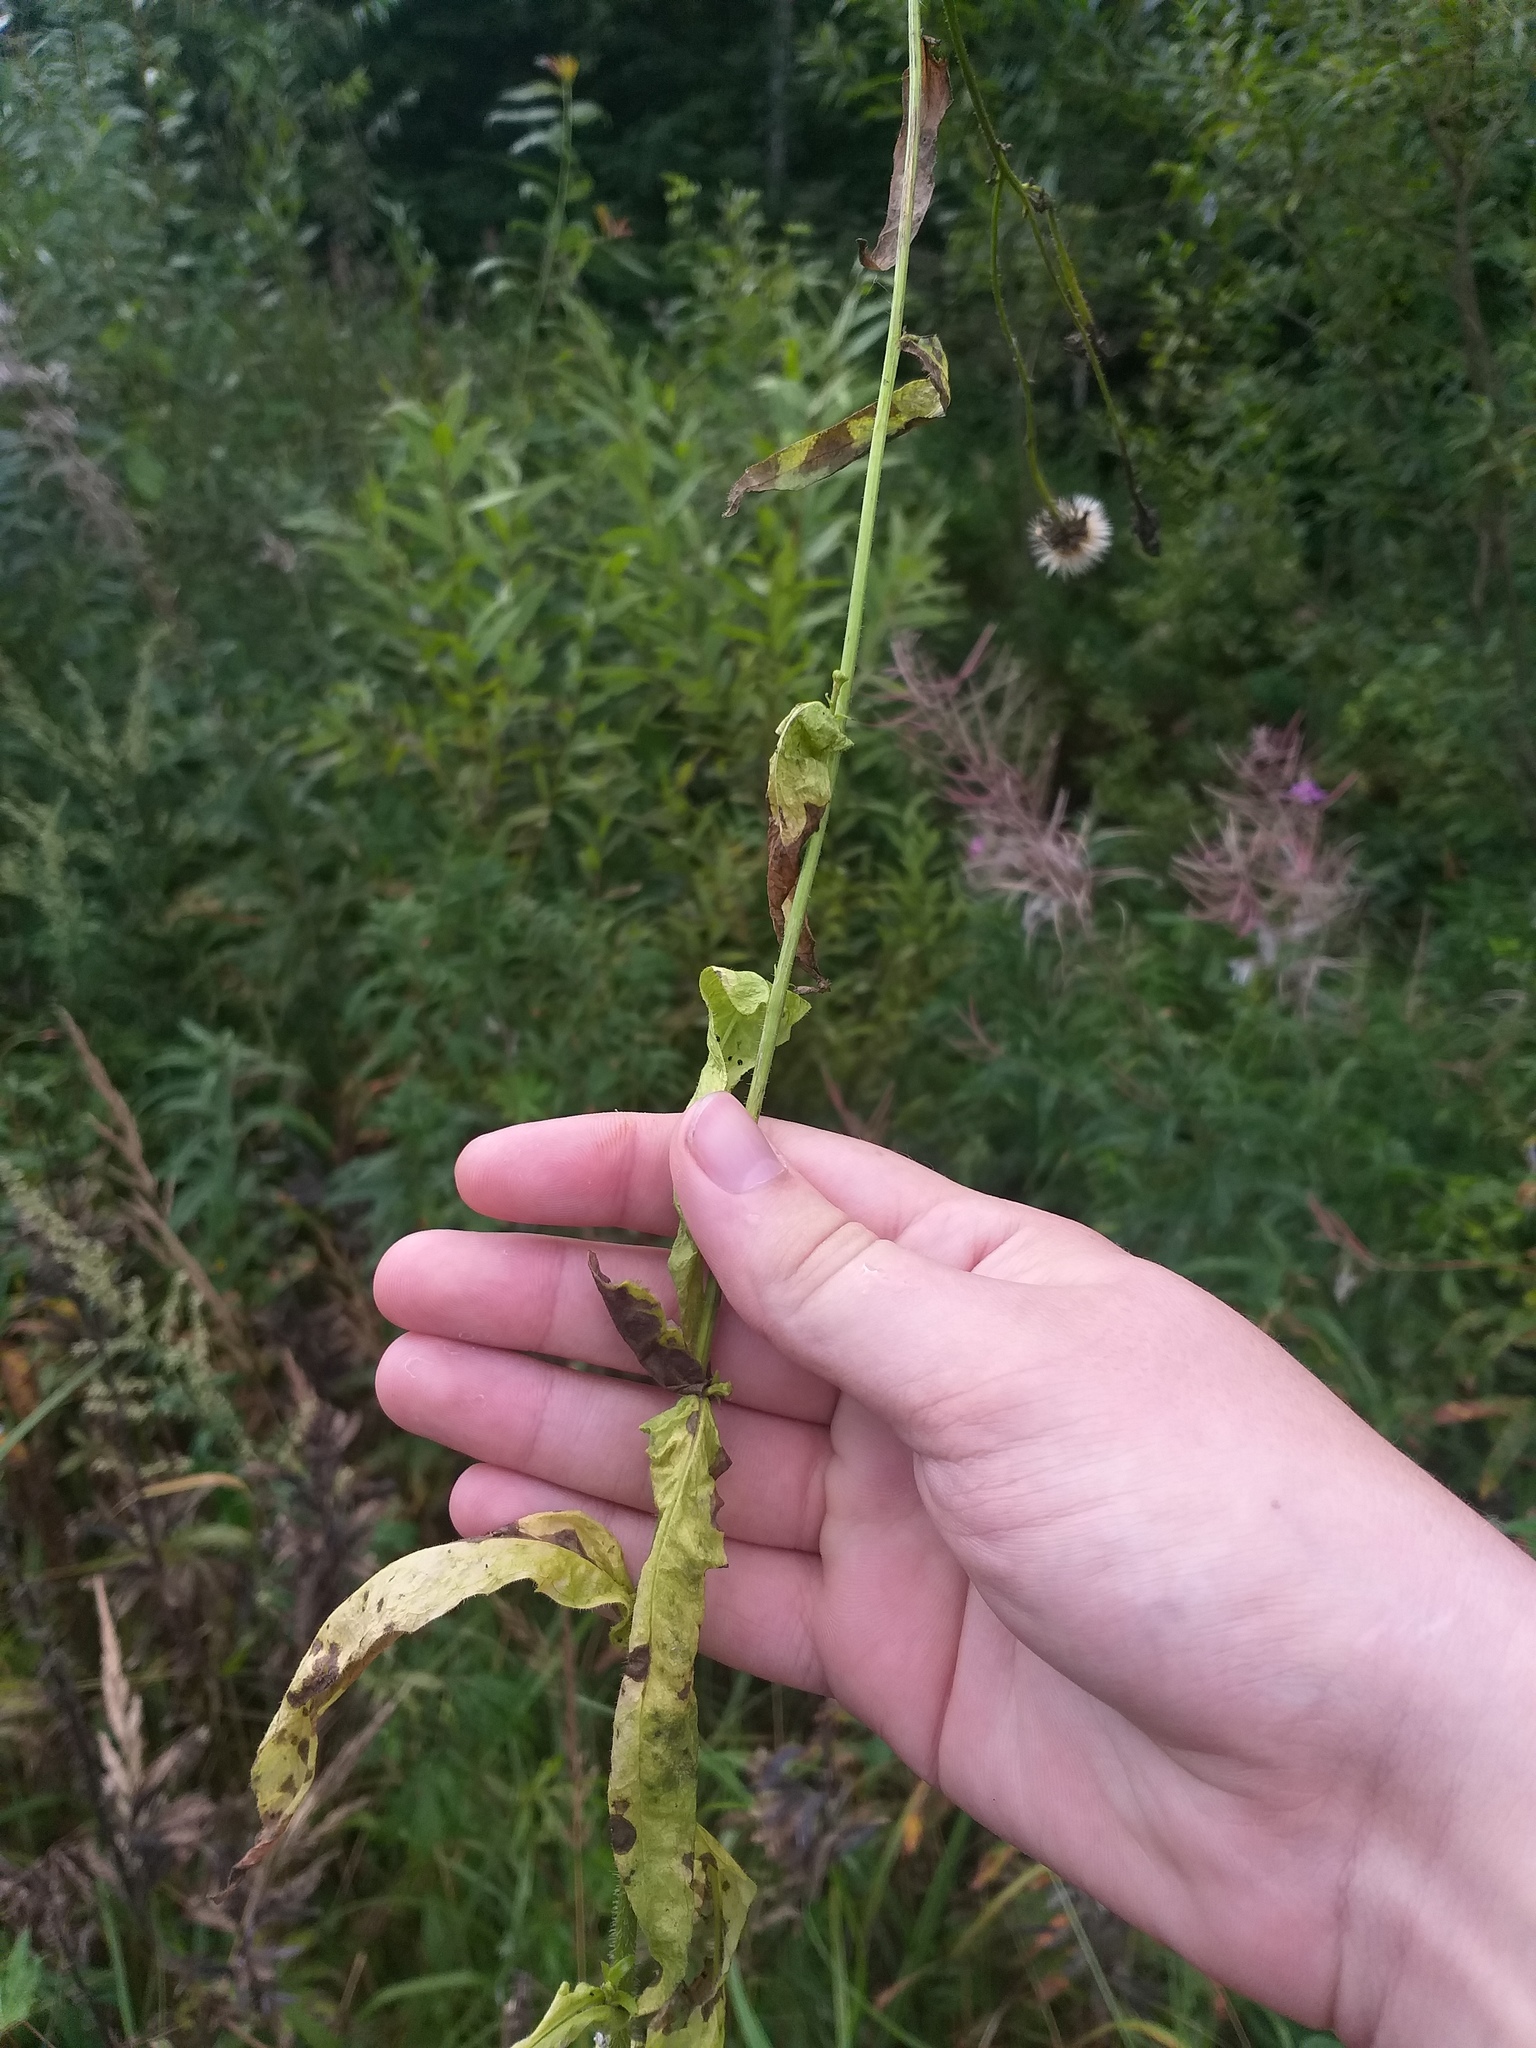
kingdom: Plantae
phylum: Tracheophyta
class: Magnoliopsida
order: Asterales
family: Asteraceae
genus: Picris
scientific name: Picris hieracioides
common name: Hawkweed oxtongue
